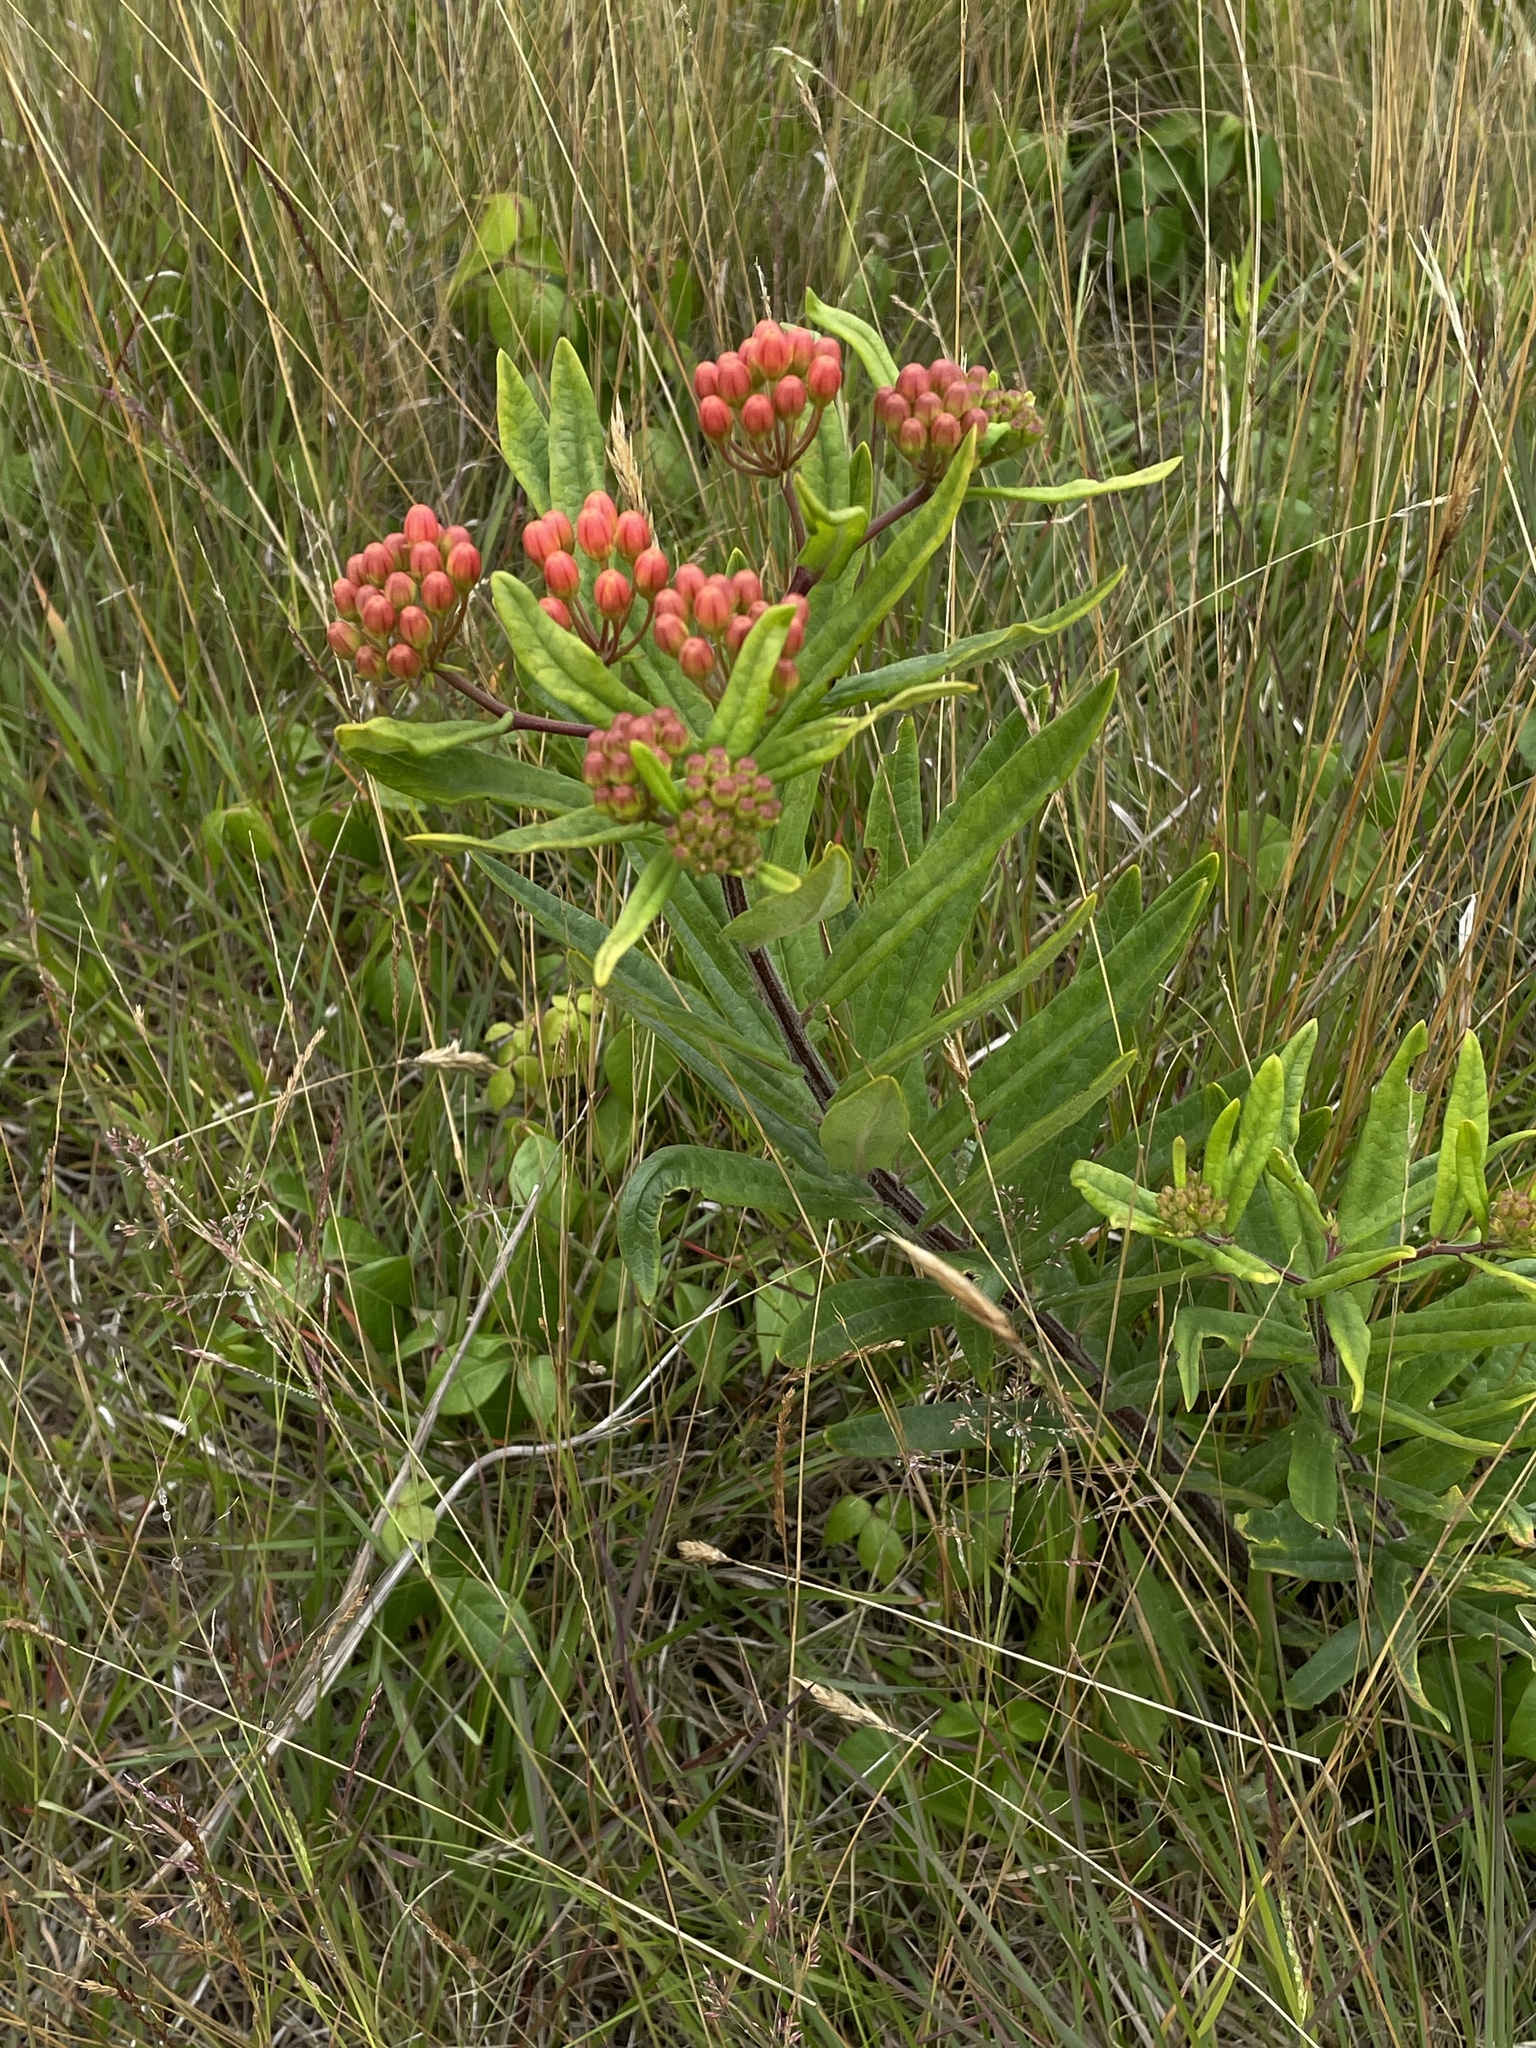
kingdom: Plantae
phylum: Tracheophyta
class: Magnoliopsida
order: Gentianales
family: Apocynaceae
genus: Asclepias
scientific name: Asclepias tuberosa
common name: Butterfly milkweed
